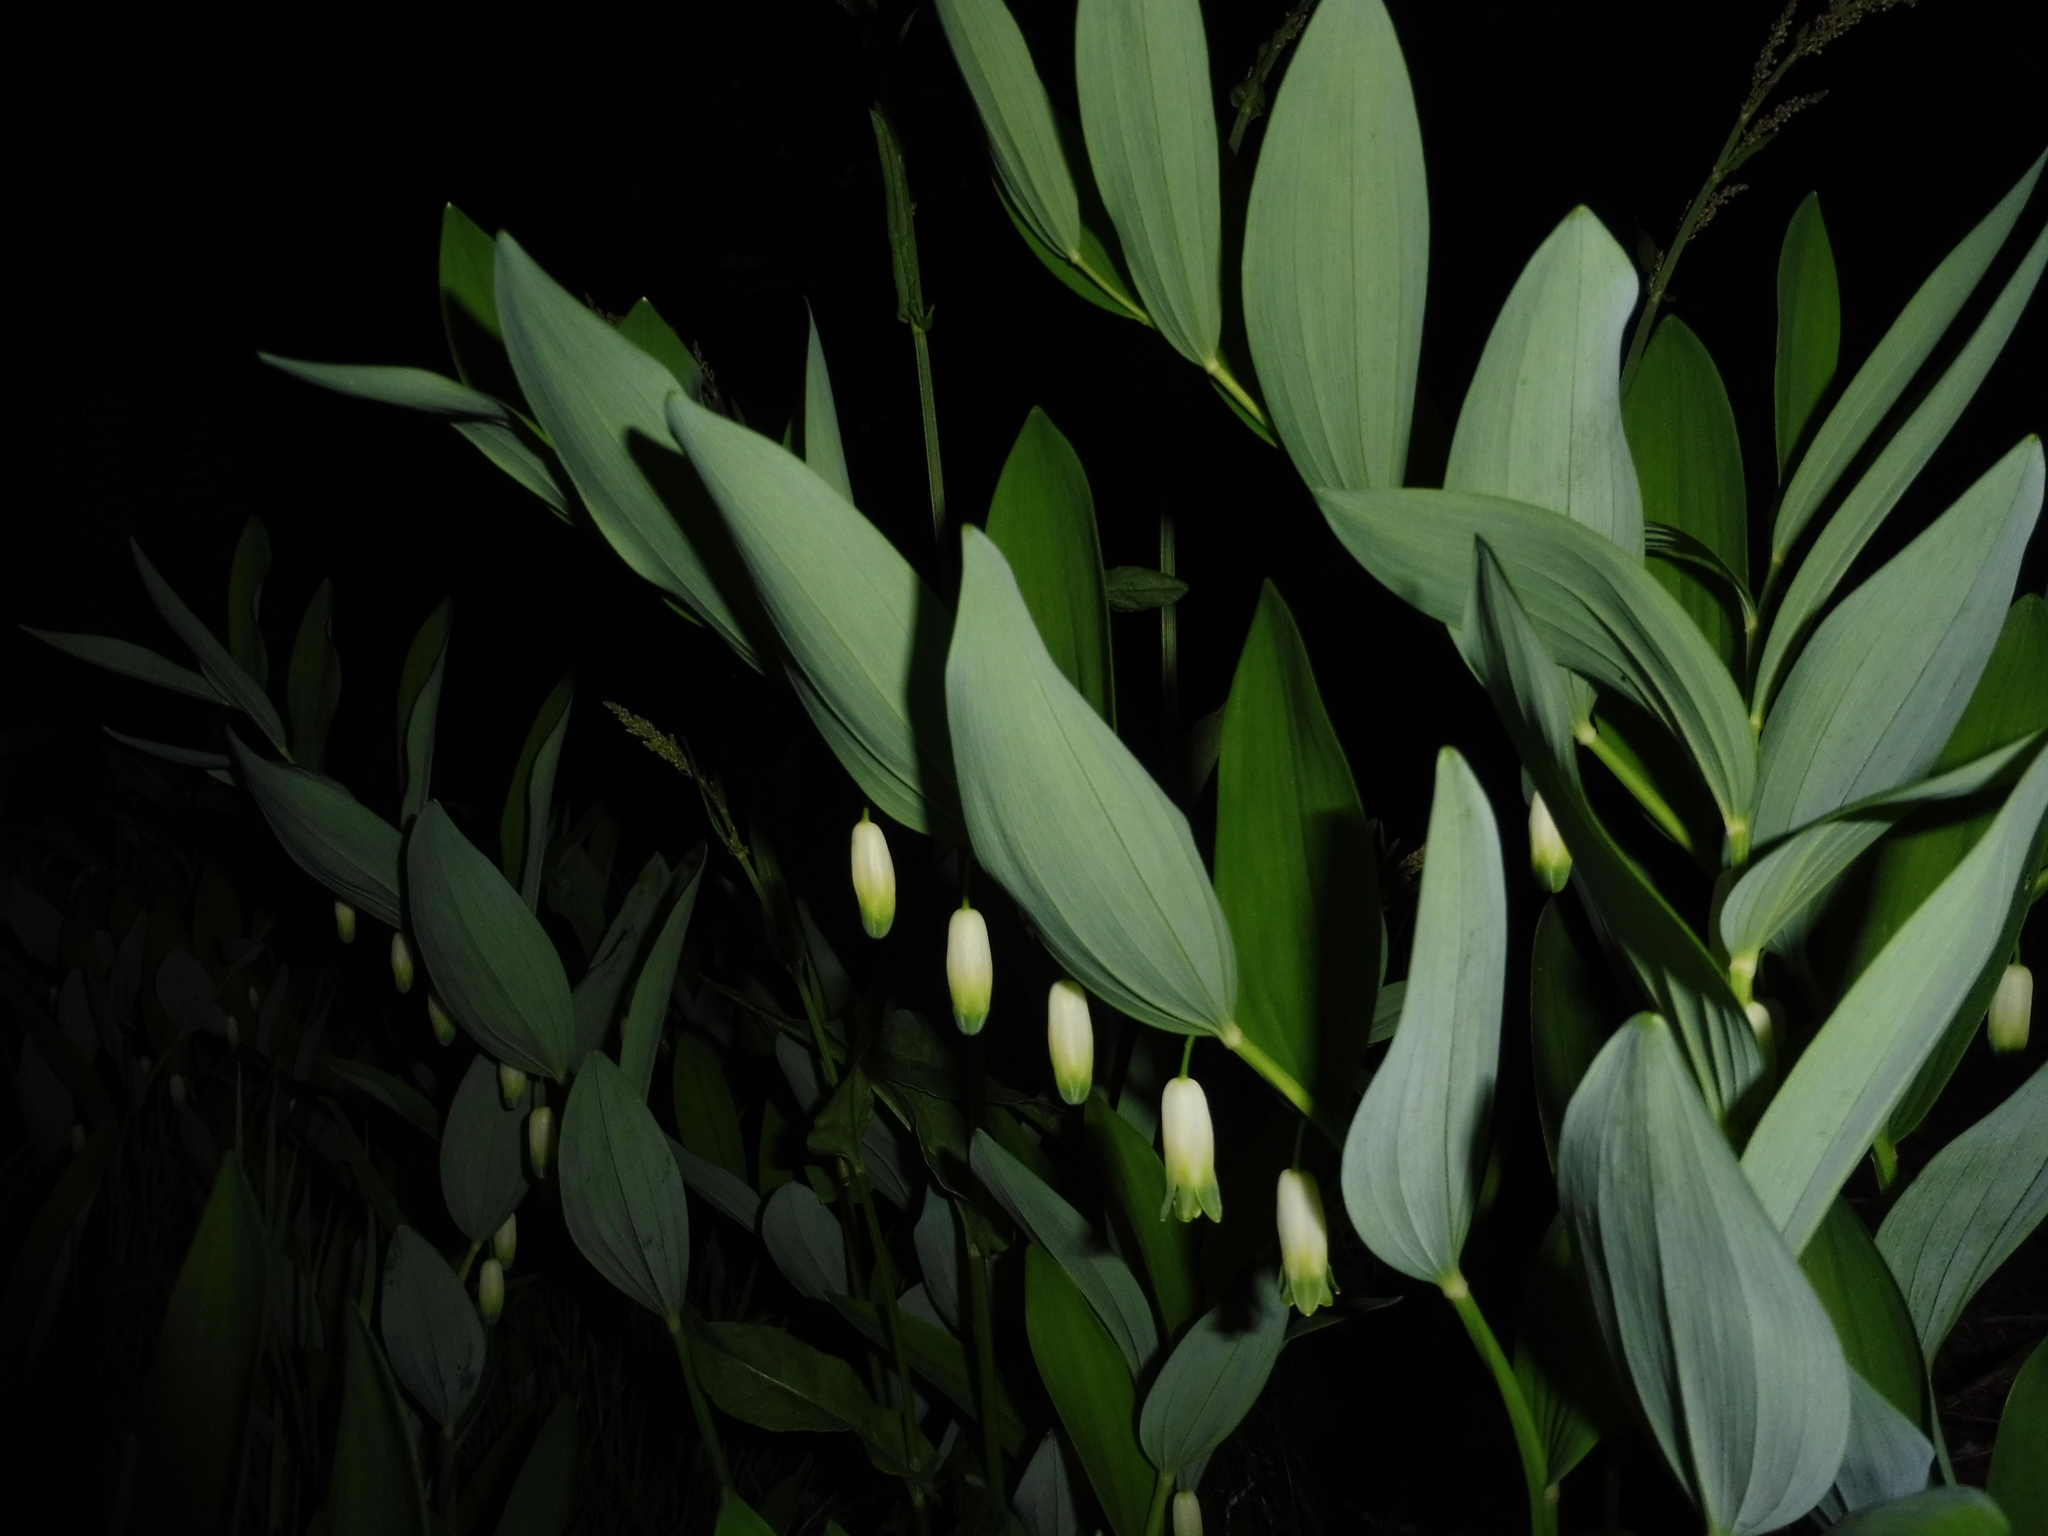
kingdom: Plantae
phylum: Tracheophyta
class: Liliopsida
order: Asparagales
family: Asparagaceae
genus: Polygonatum
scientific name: Polygonatum odoratum
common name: Angular solomon's-seal
